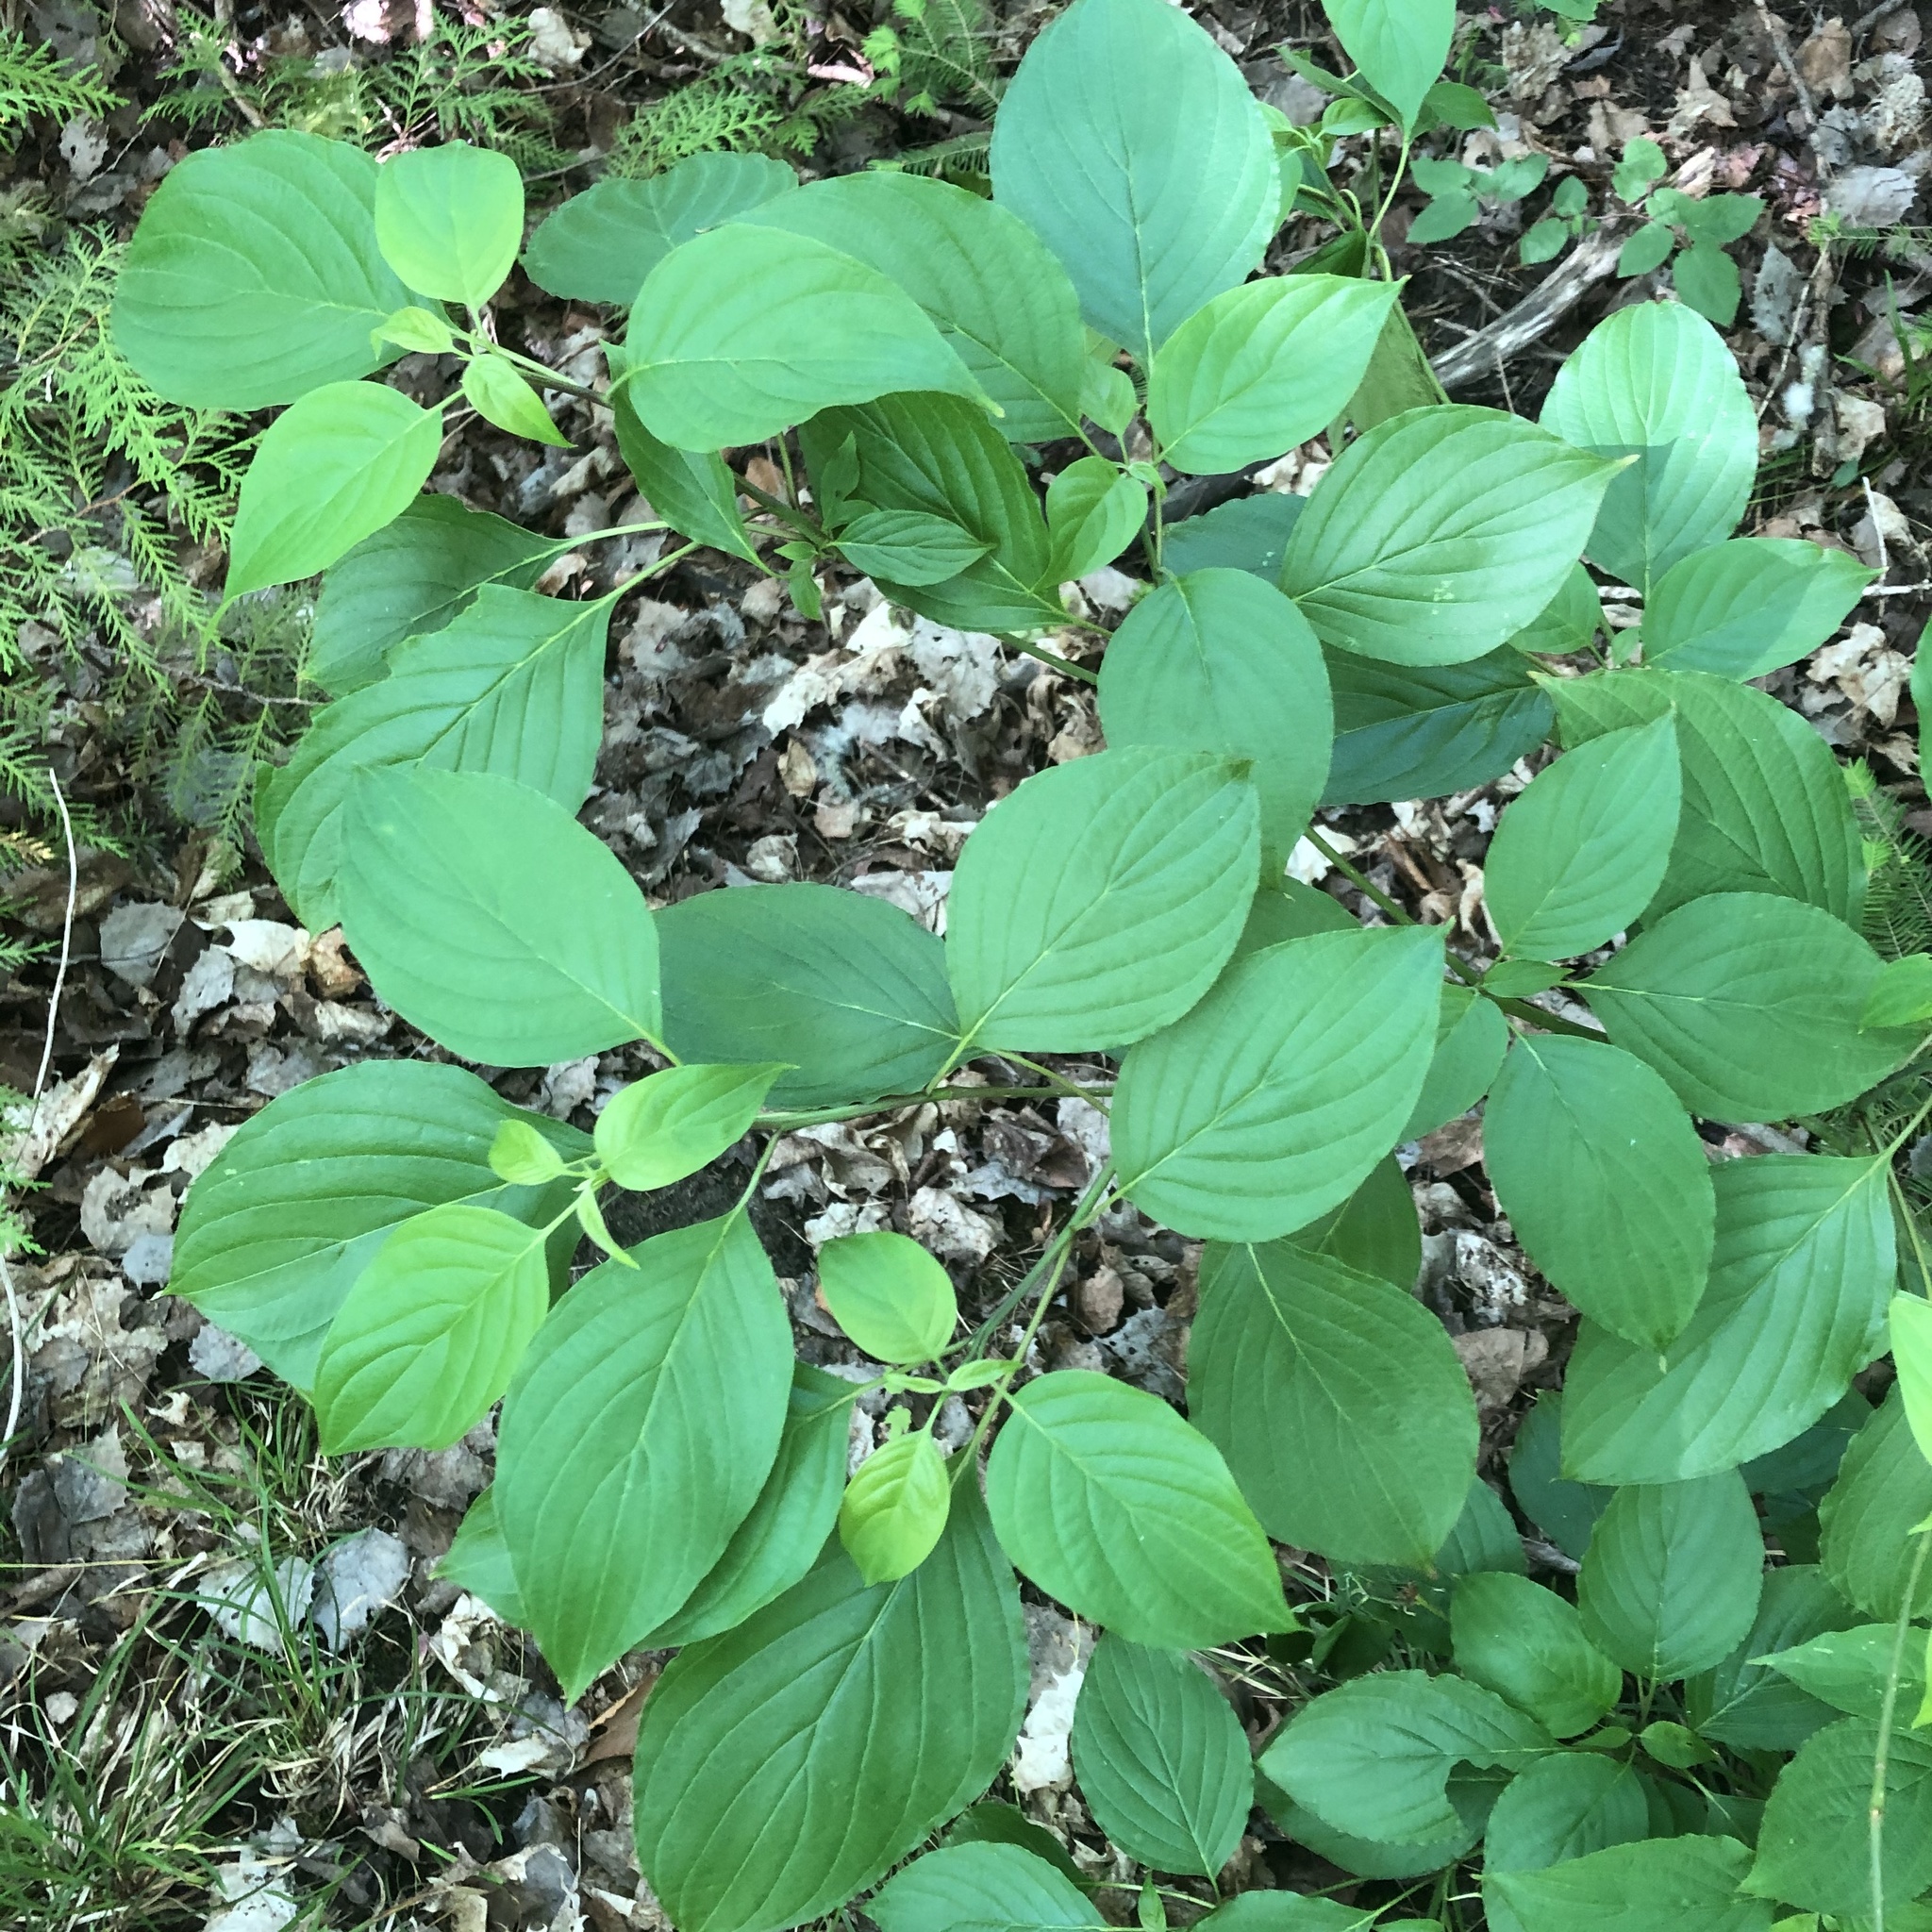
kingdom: Plantae
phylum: Tracheophyta
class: Magnoliopsida
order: Cornales
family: Cornaceae
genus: Cornus
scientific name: Cornus alternifolia
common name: Pagoda dogwood
